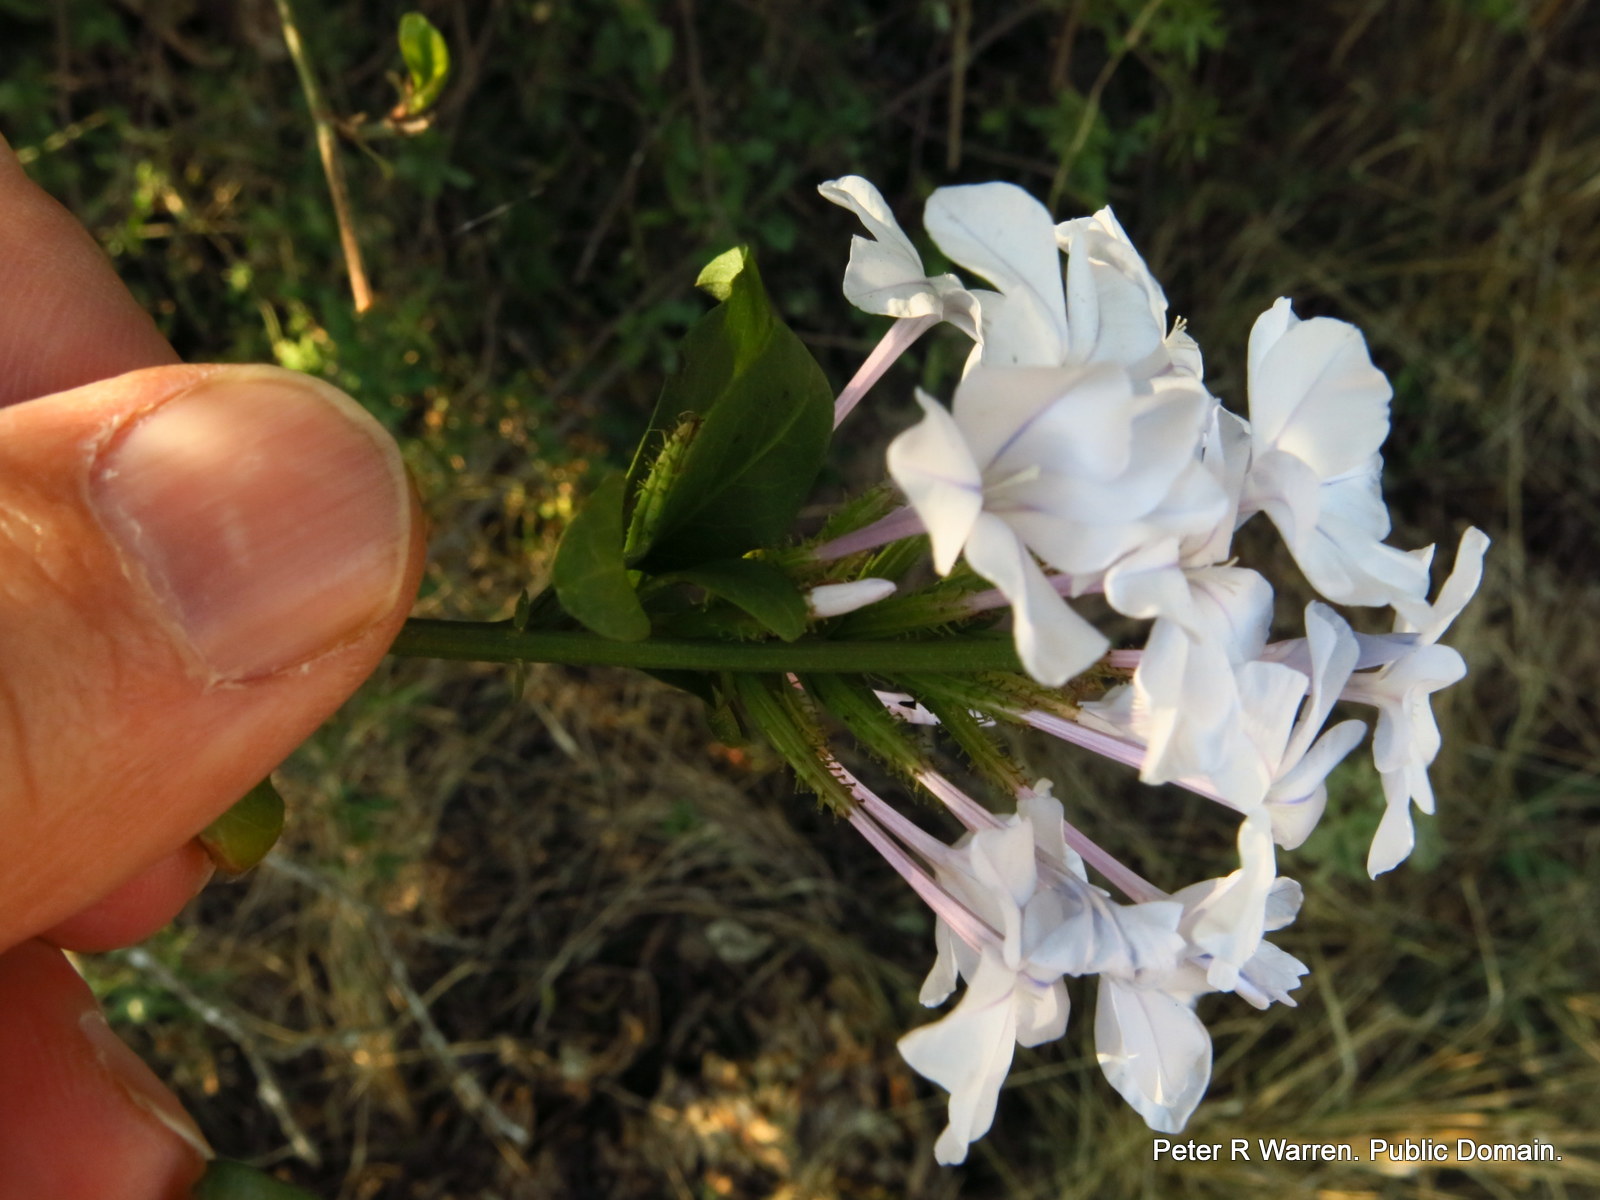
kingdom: Plantae
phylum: Tracheophyta
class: Magnoliopsida
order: Caryophyllales
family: Plumbaginaceae
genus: Plumbago
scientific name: Plumbago auriculata
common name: Cape leadwort
